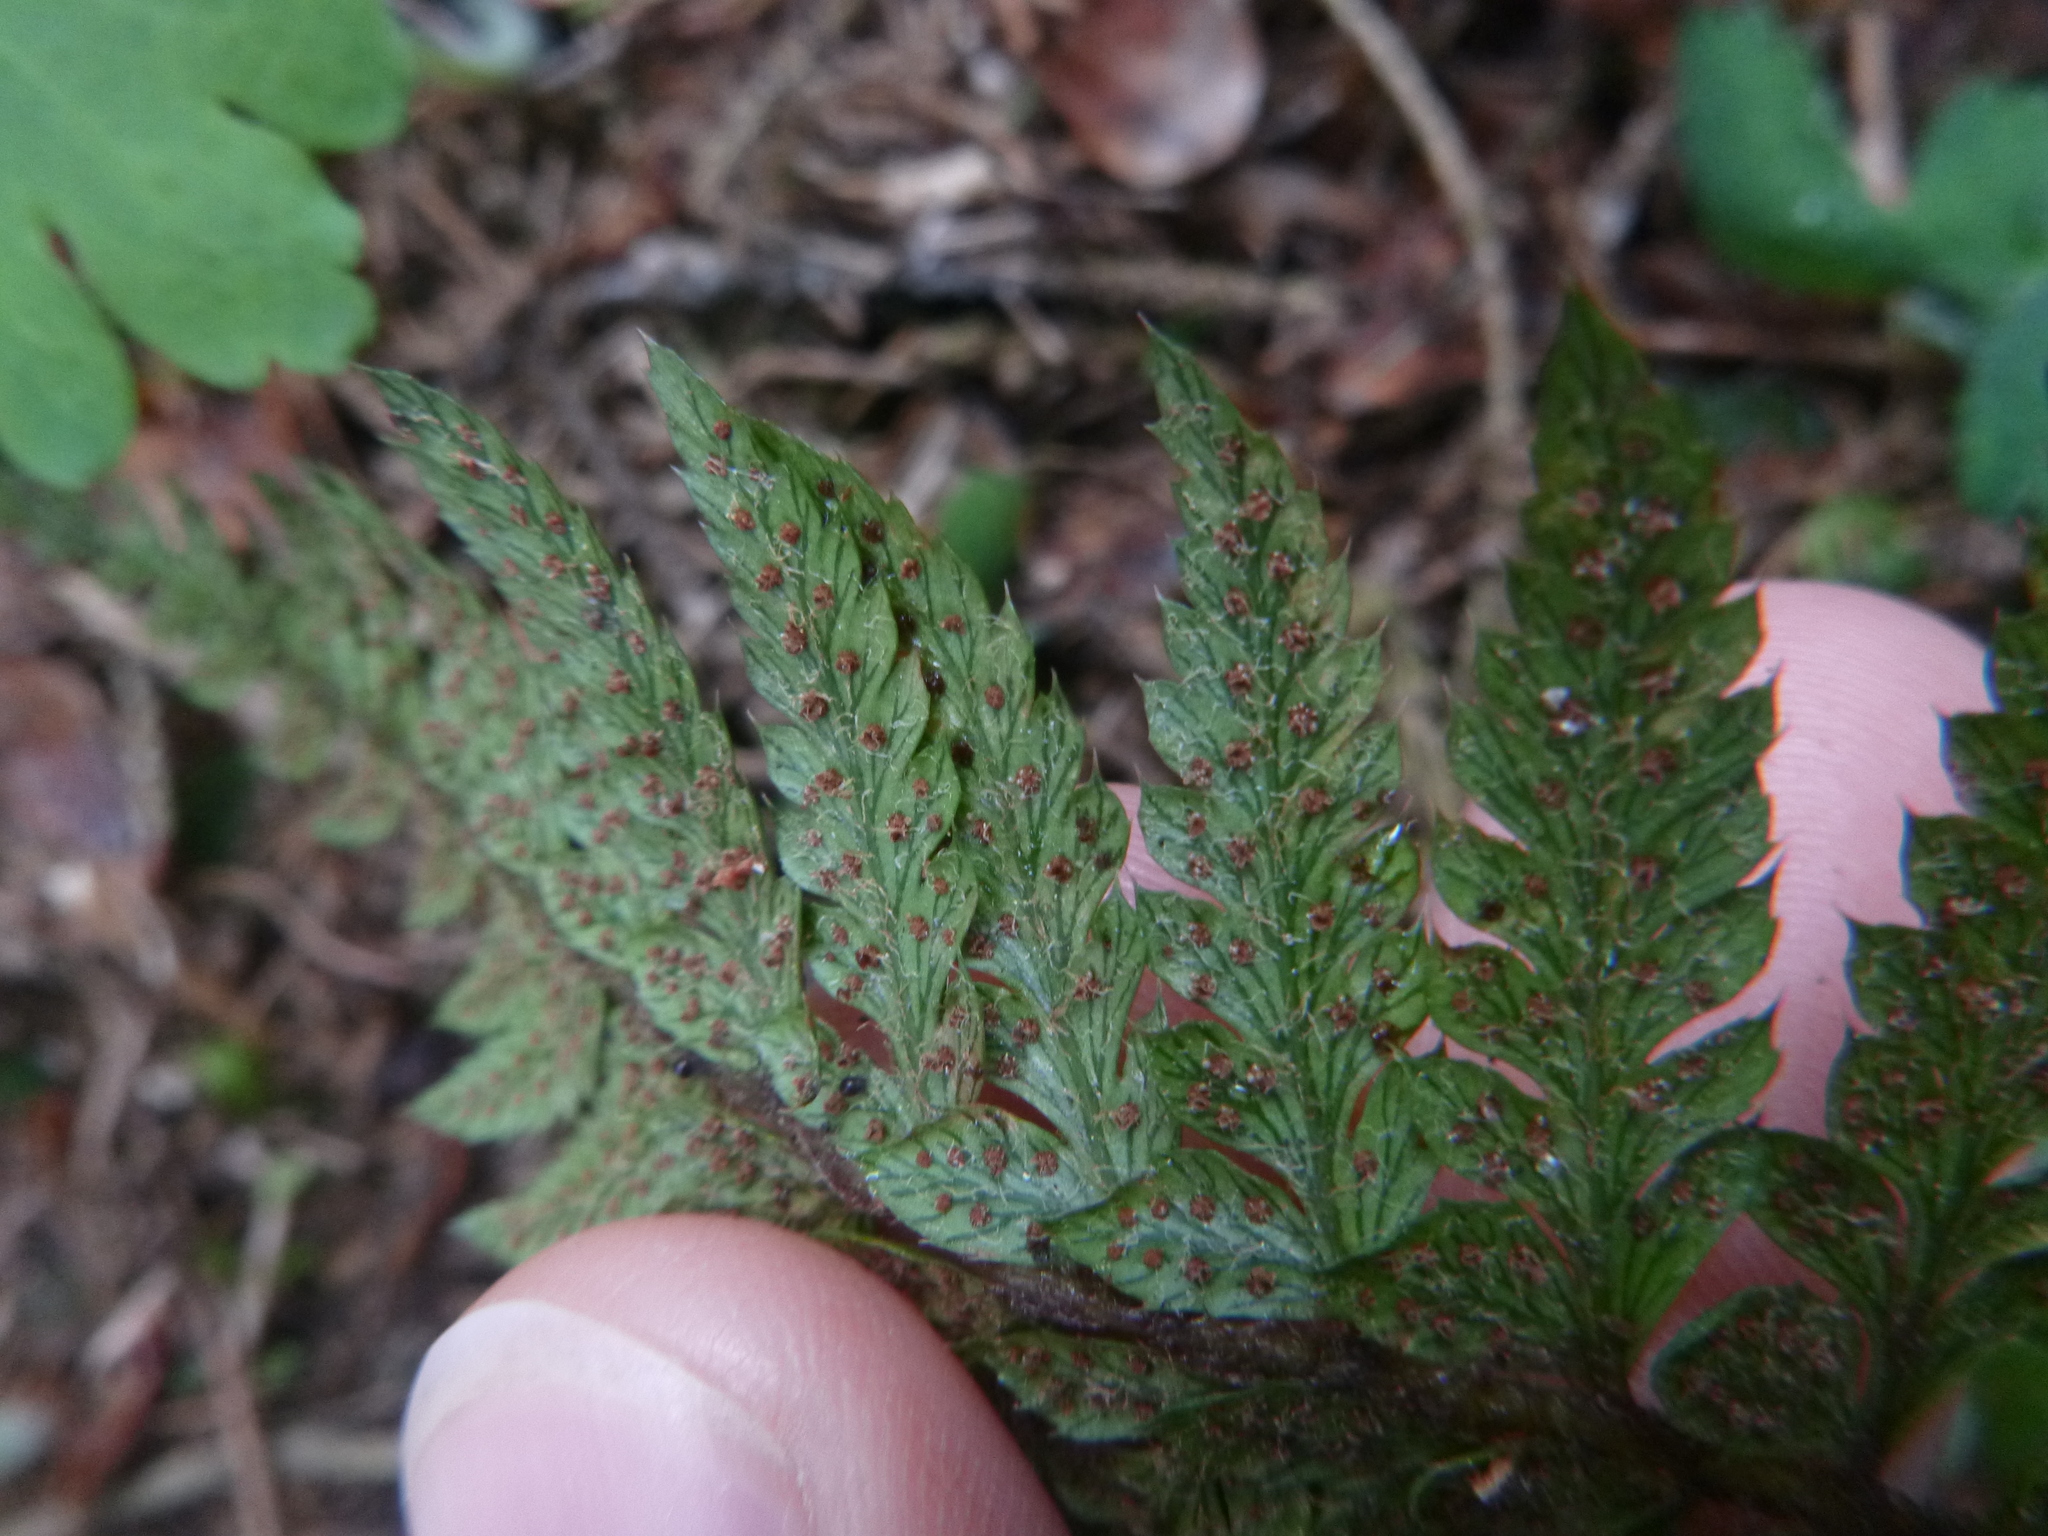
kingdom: Plantae
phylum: Tracheophyta
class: Polypodiopsida
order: Polypodiales
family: Dryopteridaceae
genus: Polystichum
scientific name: Polystichum aculeatum
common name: Hard shield-fern
